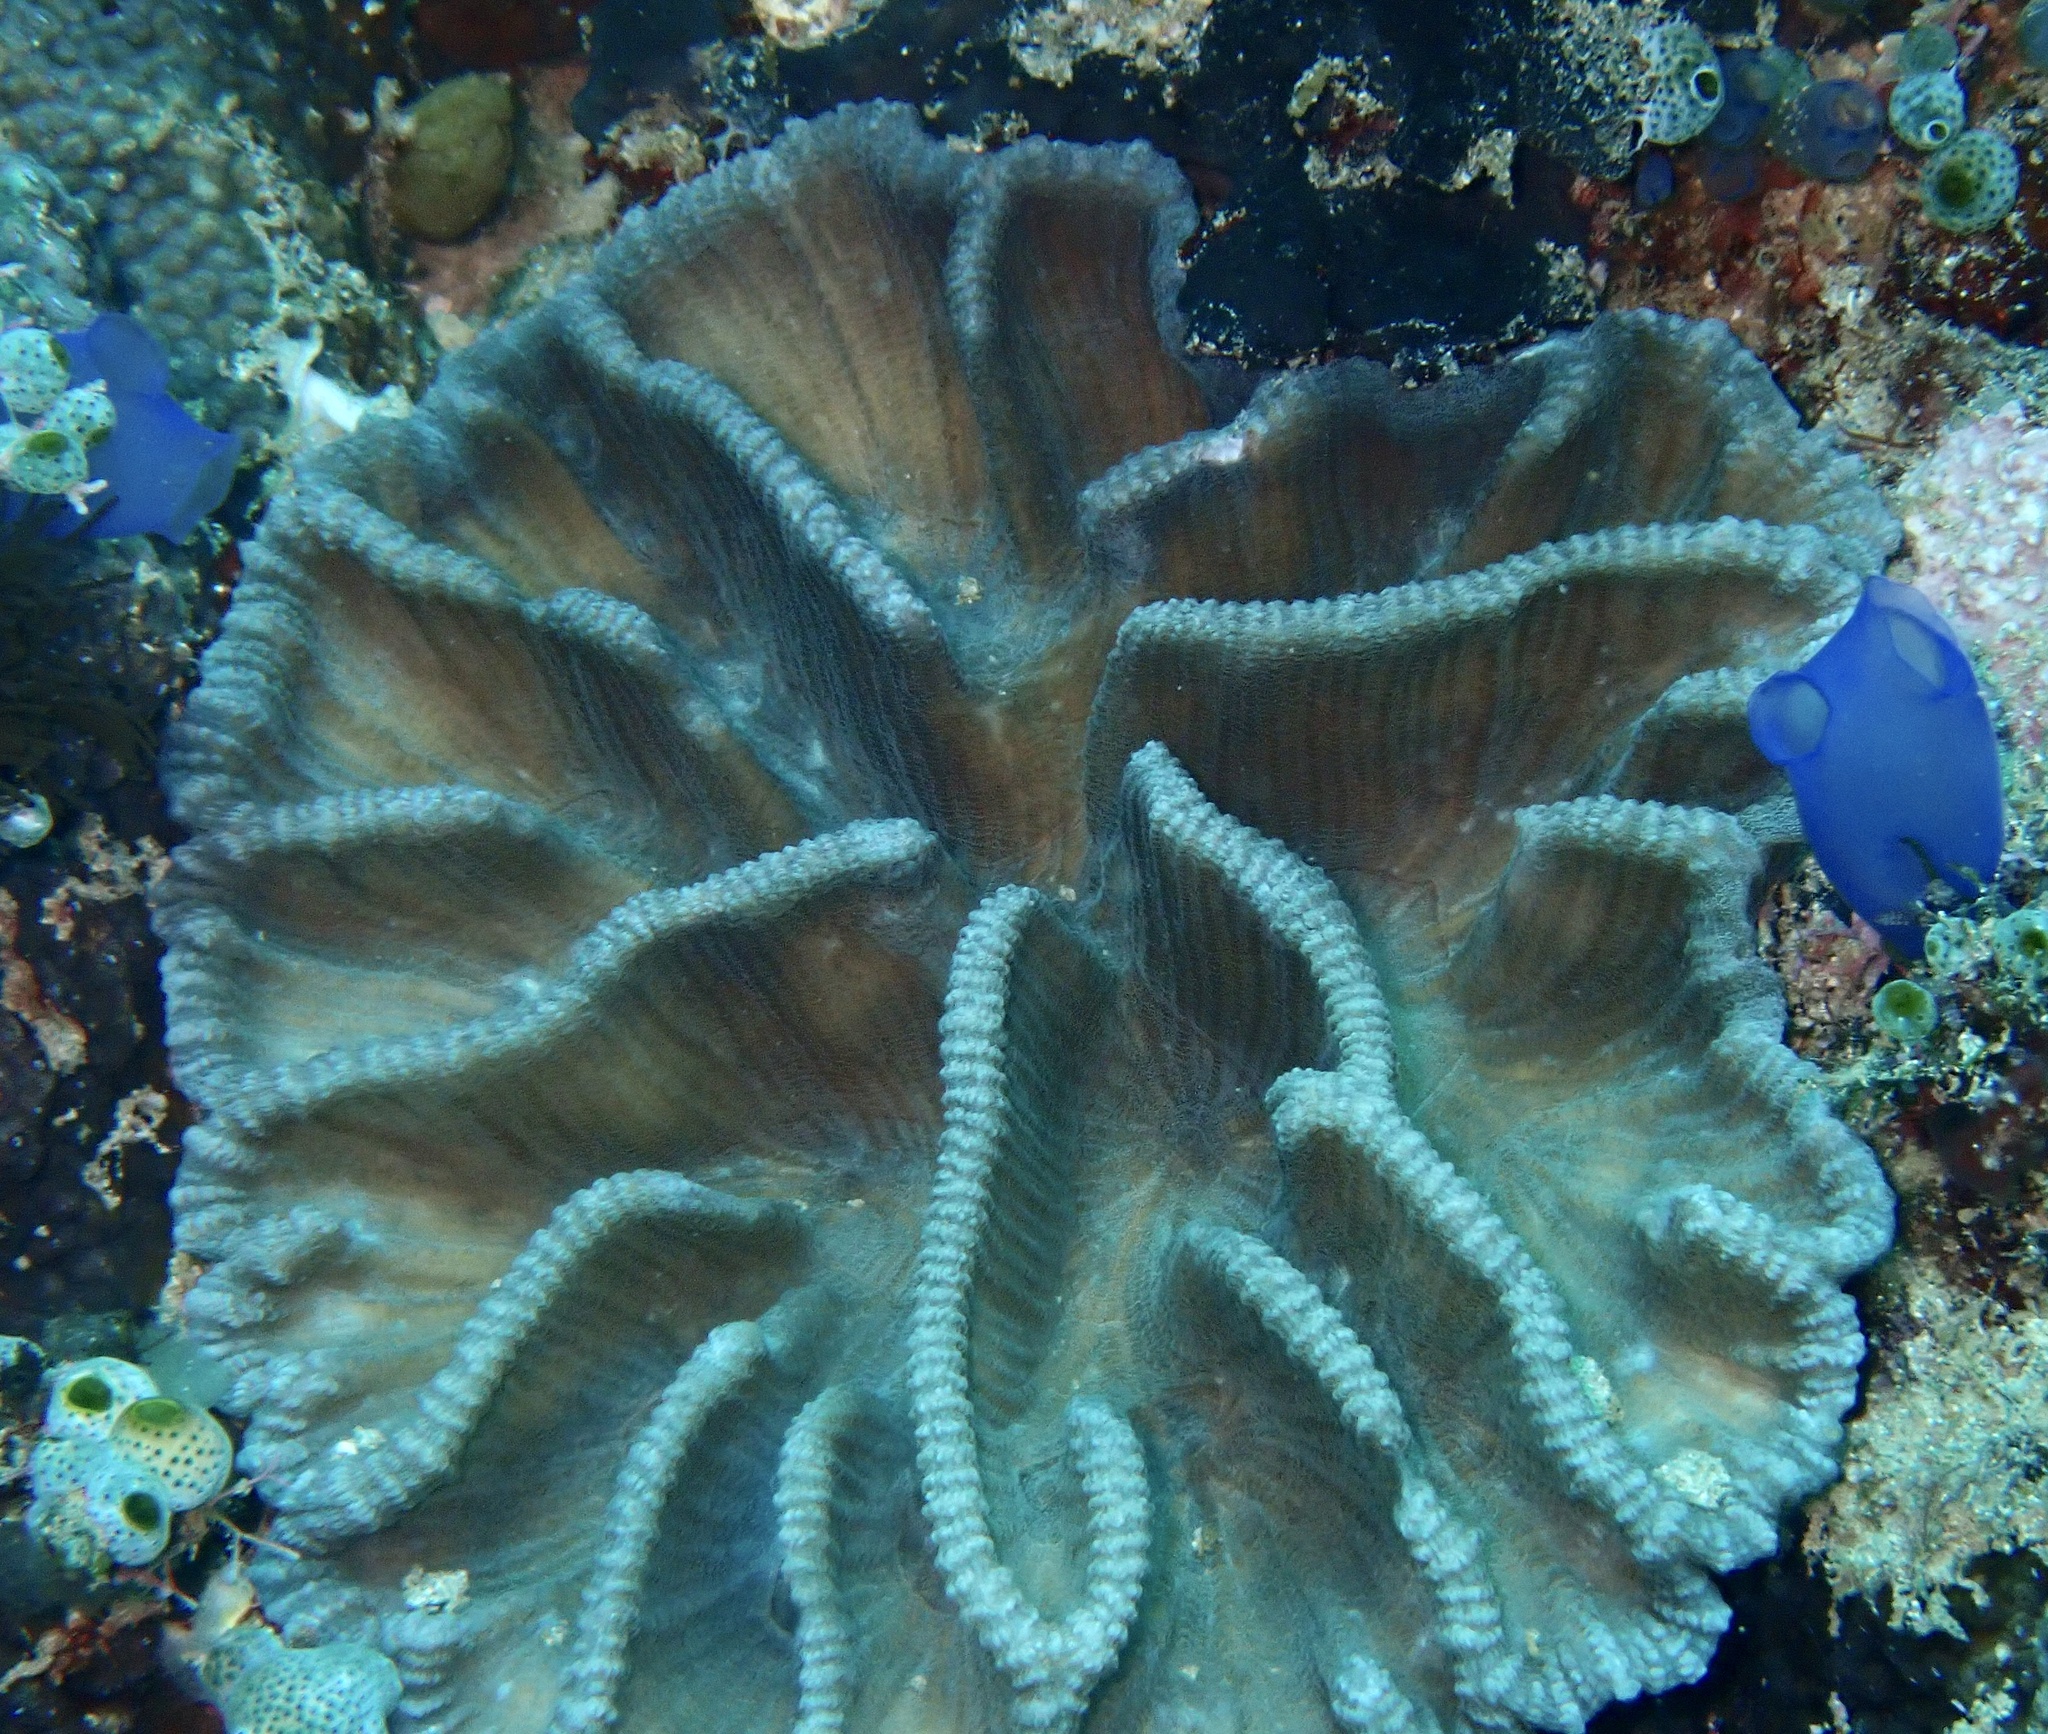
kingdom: Animalia
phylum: Cnidaria
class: Anthozoa
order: Scleractinia
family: Merulinidae
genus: Pectinia
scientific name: Pectinia lactuca
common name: Common lettuce coral
